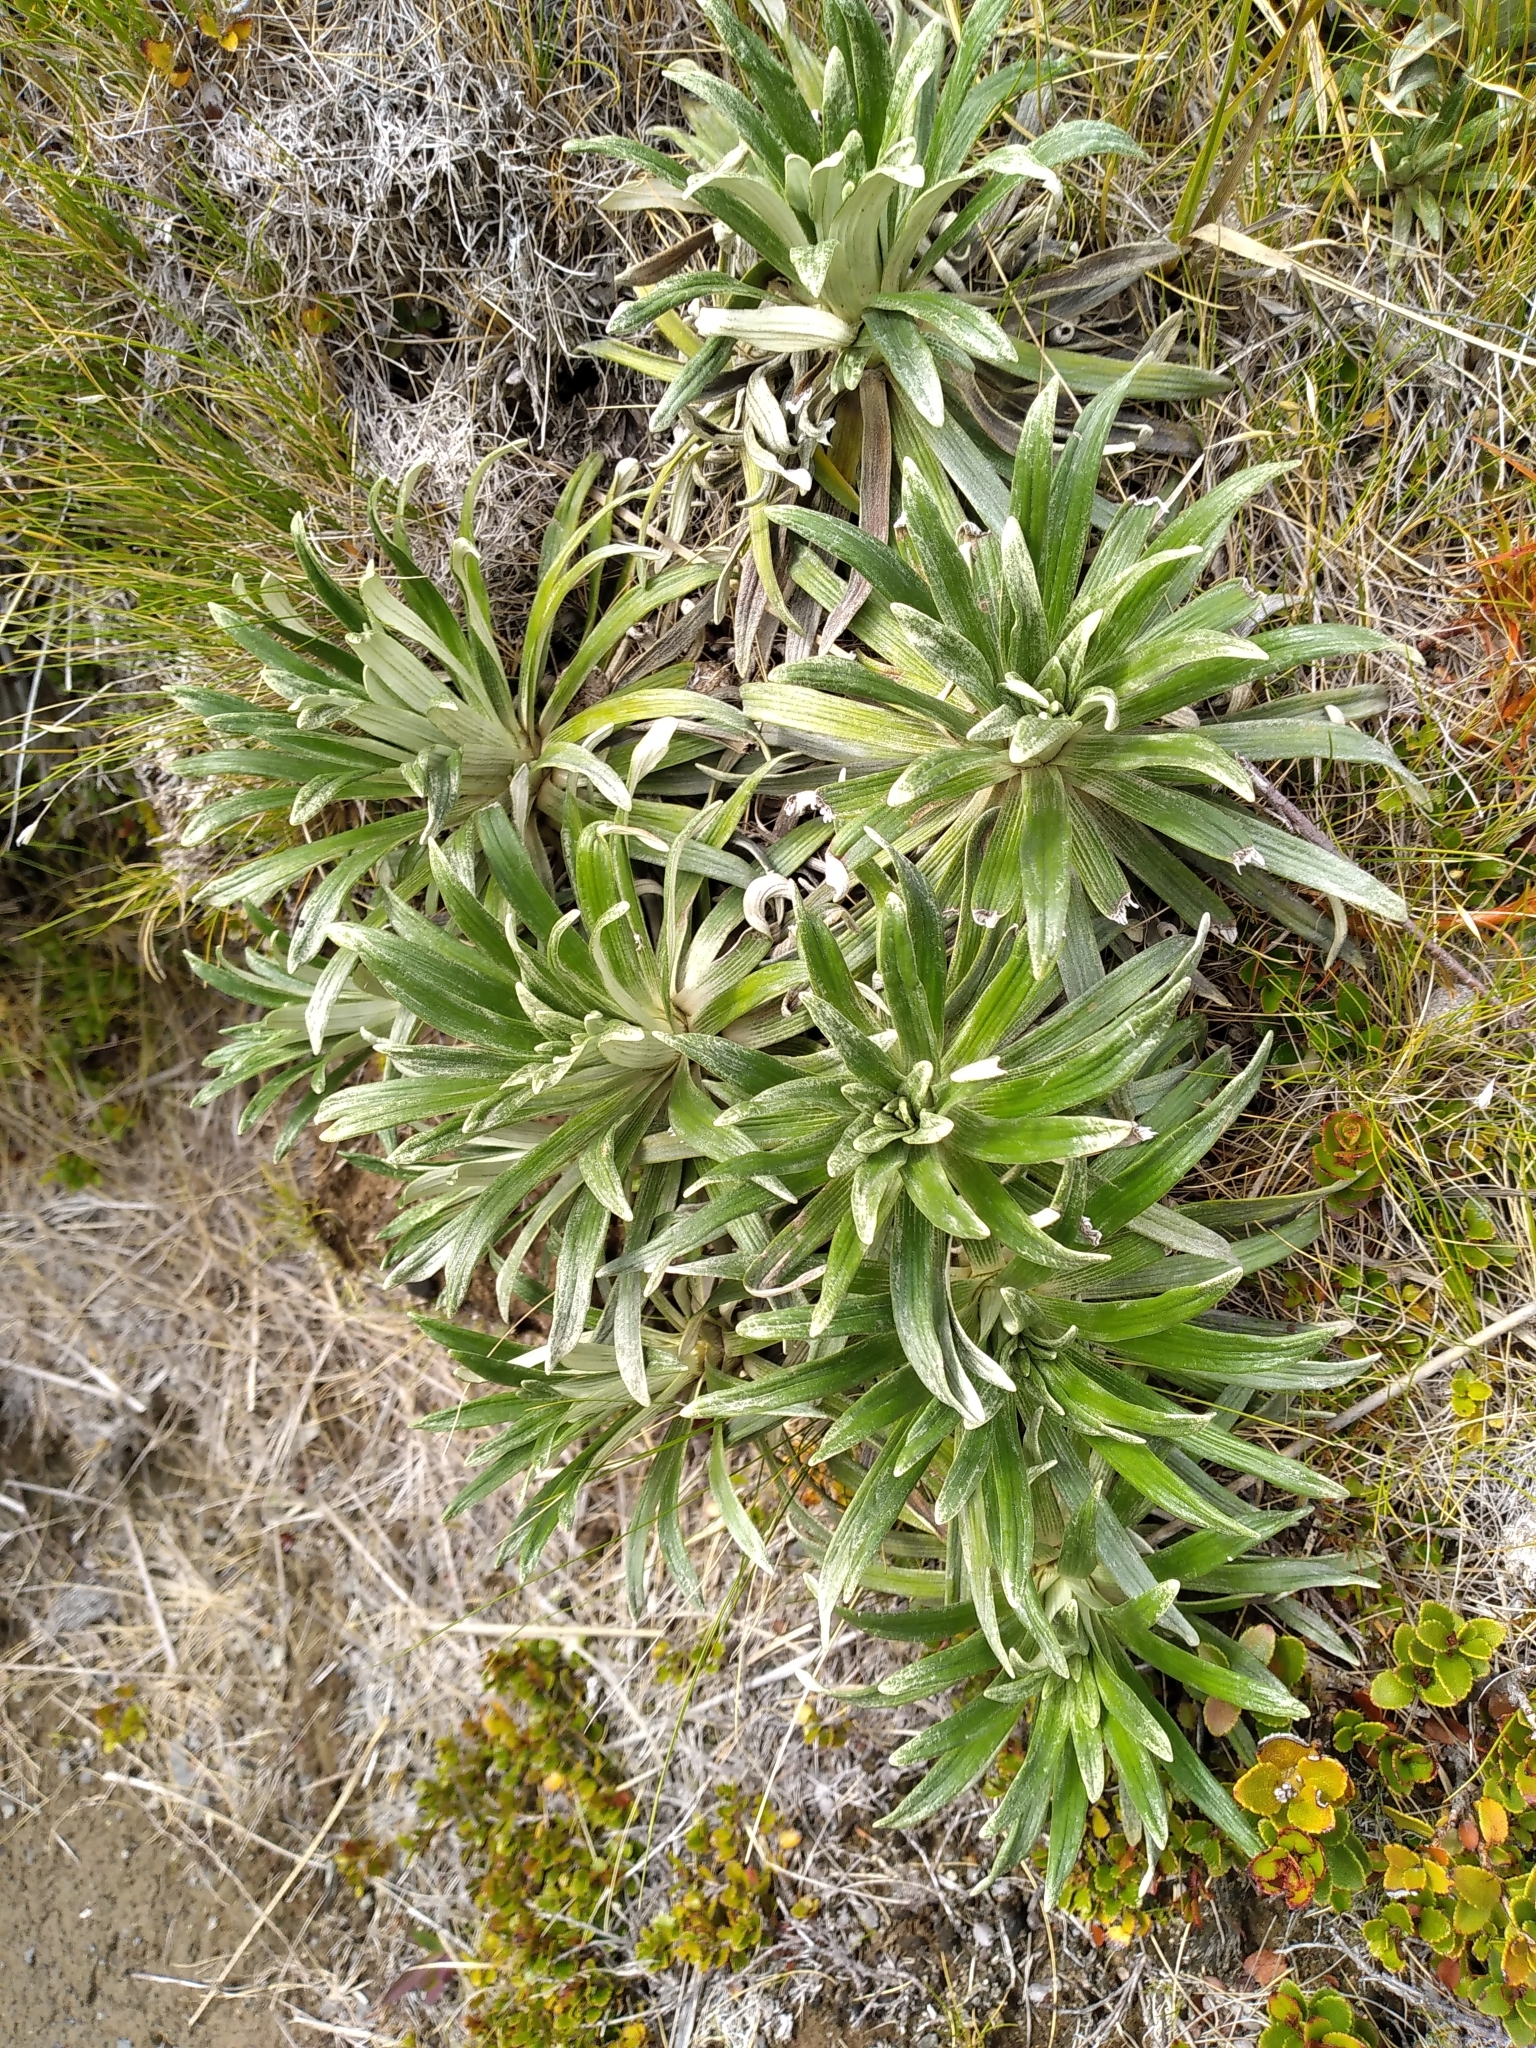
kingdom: Plantae
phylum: Tracheophyta
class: Magnoliopsida
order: Asterales
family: Asteraceae
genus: Celmisia
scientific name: Celmisia viscosa
